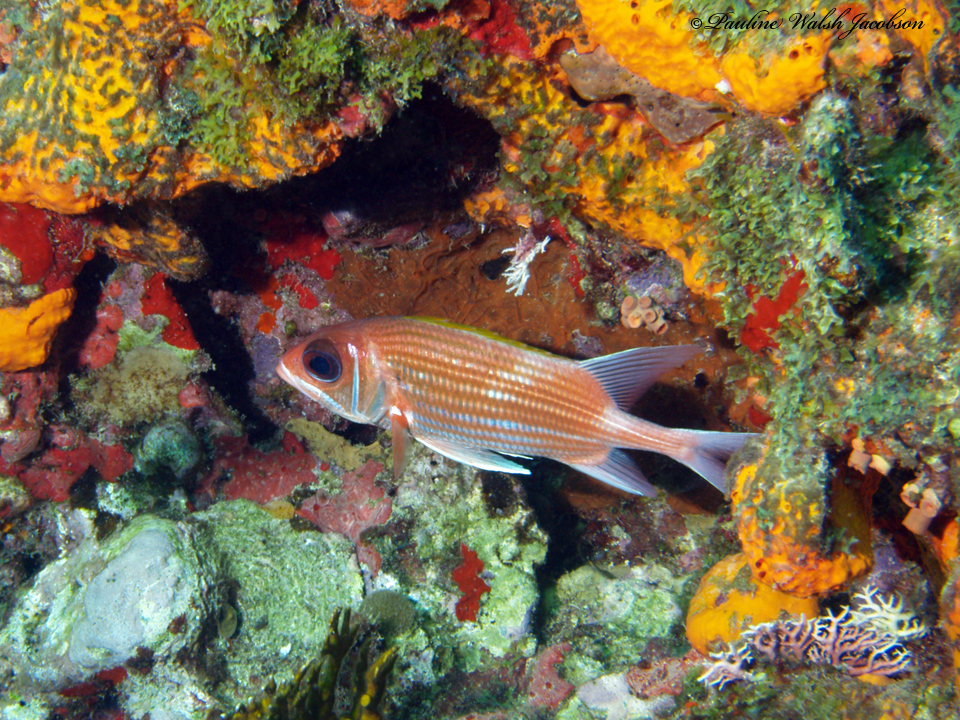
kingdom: Animalia
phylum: Chordata
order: Beryciformes
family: Holocentridae
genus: Holocentrus
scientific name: Holocentrus adscensionis
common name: Squirrelfish
